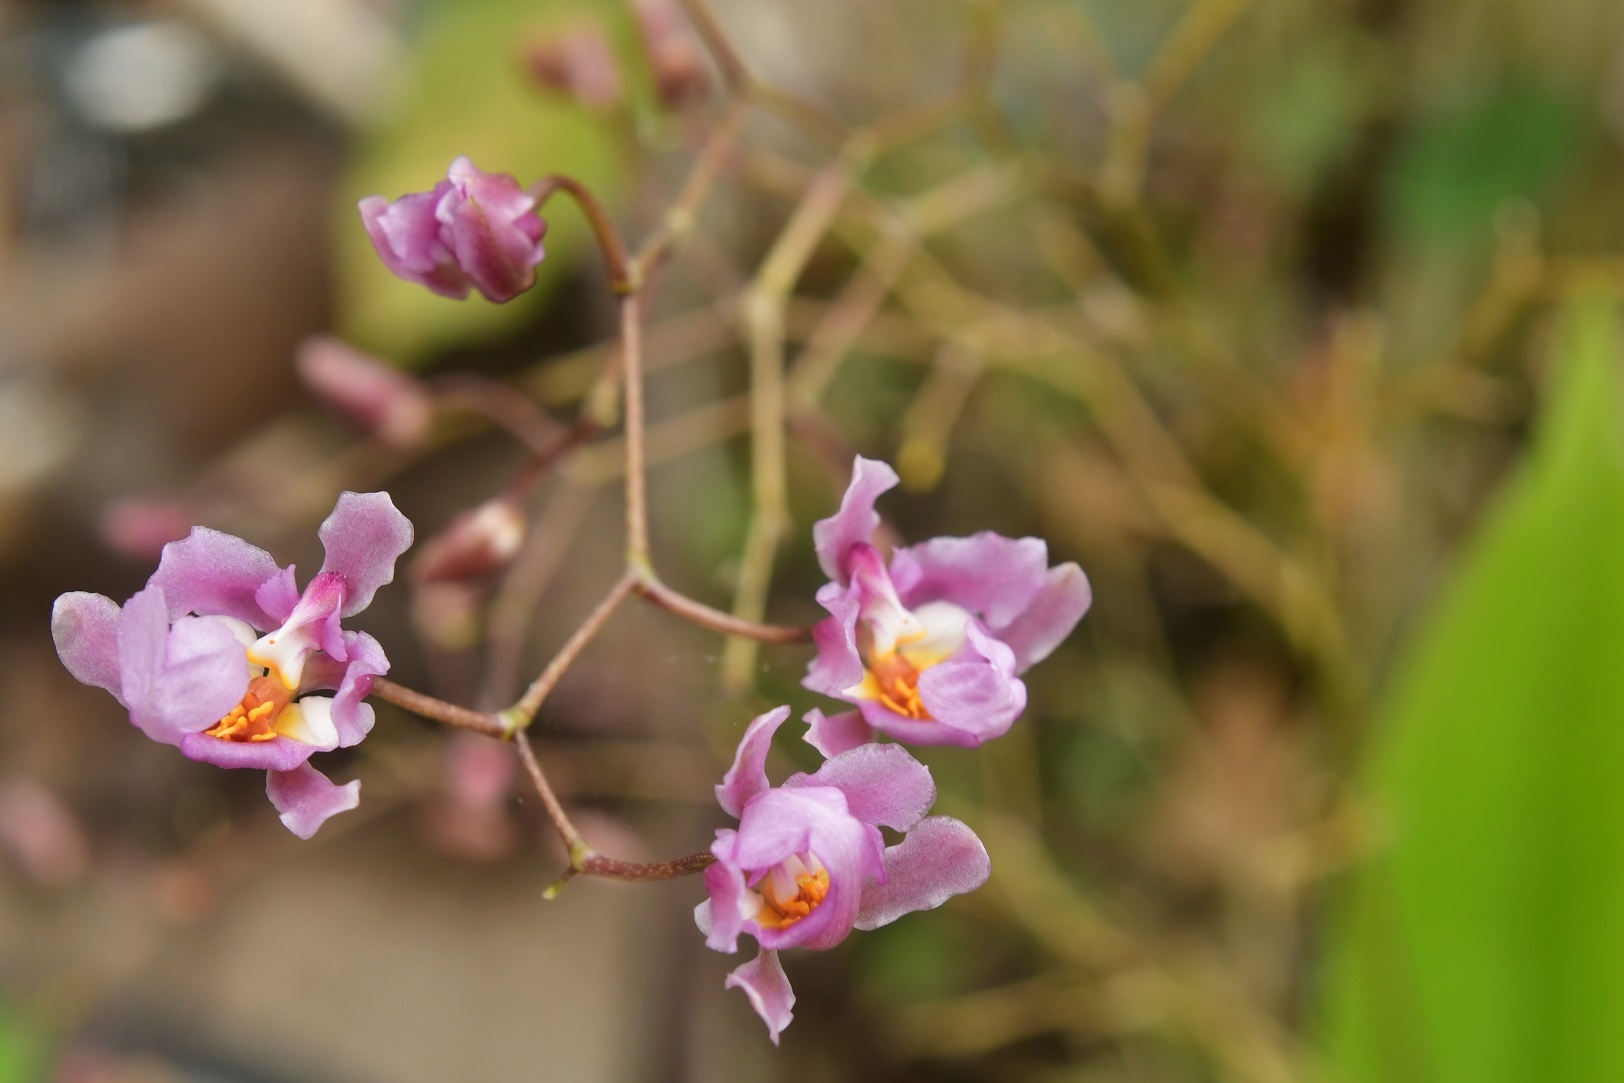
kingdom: Plantae
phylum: Tracheophyta
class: Liliopsida
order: Asparagales
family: Orchidaceae
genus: Oncidium
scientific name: Oncidium sotoanum
